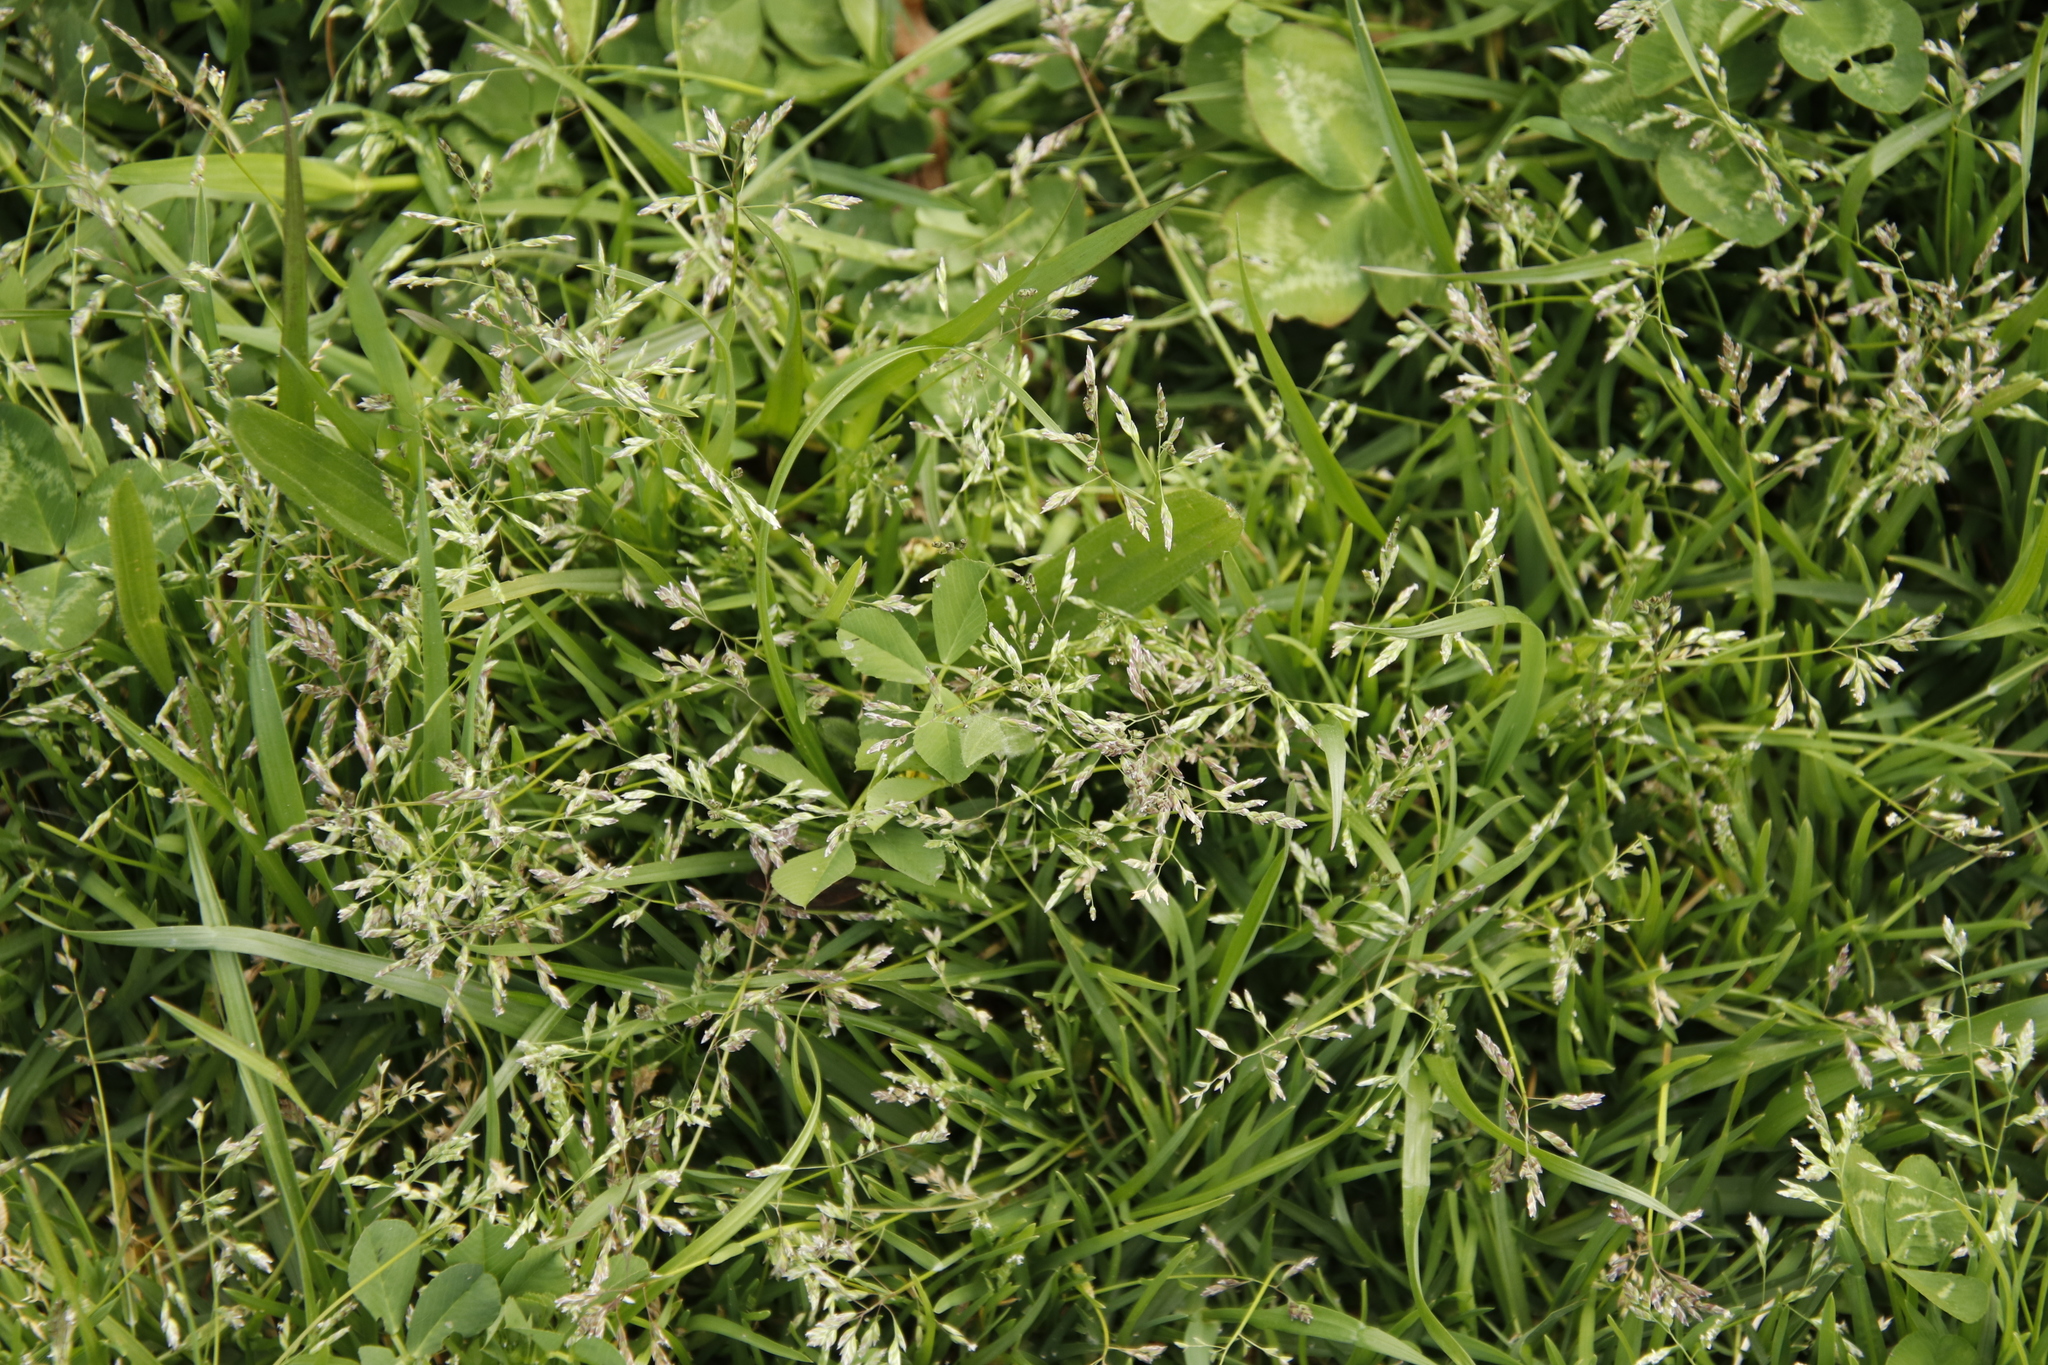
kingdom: Plantae
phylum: Tracheophyta
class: Liliopsida
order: Poales
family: Poaceae
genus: Poa
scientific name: Poa annua
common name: Annual bluegrass
